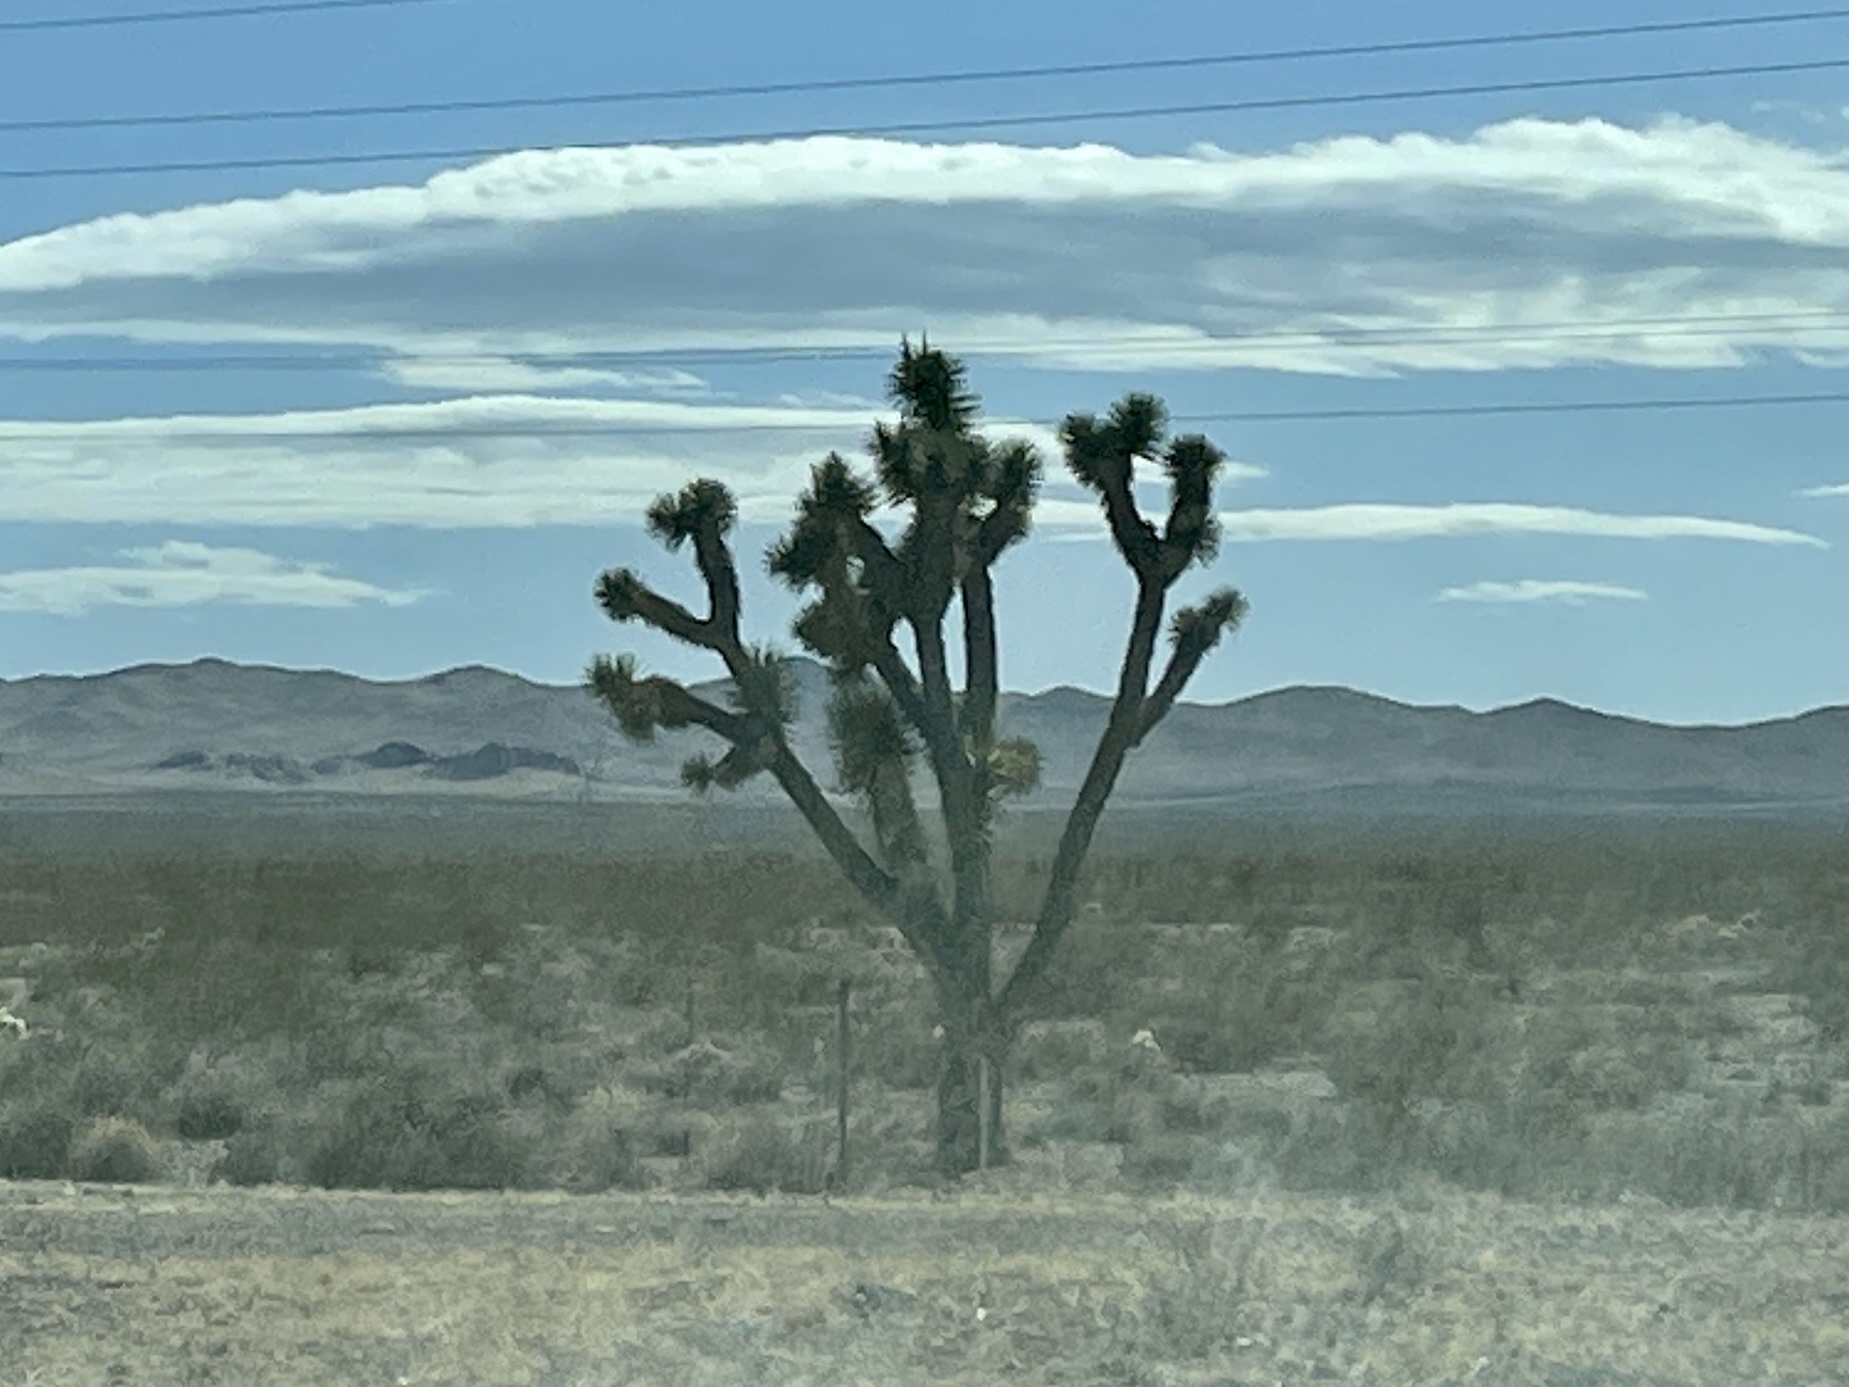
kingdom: Plantae
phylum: Tracheophyta
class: Liliopsida
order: Asparagales
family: Asparagaceae
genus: Yucca
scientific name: Yucca brevifolia
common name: Joshua tree
